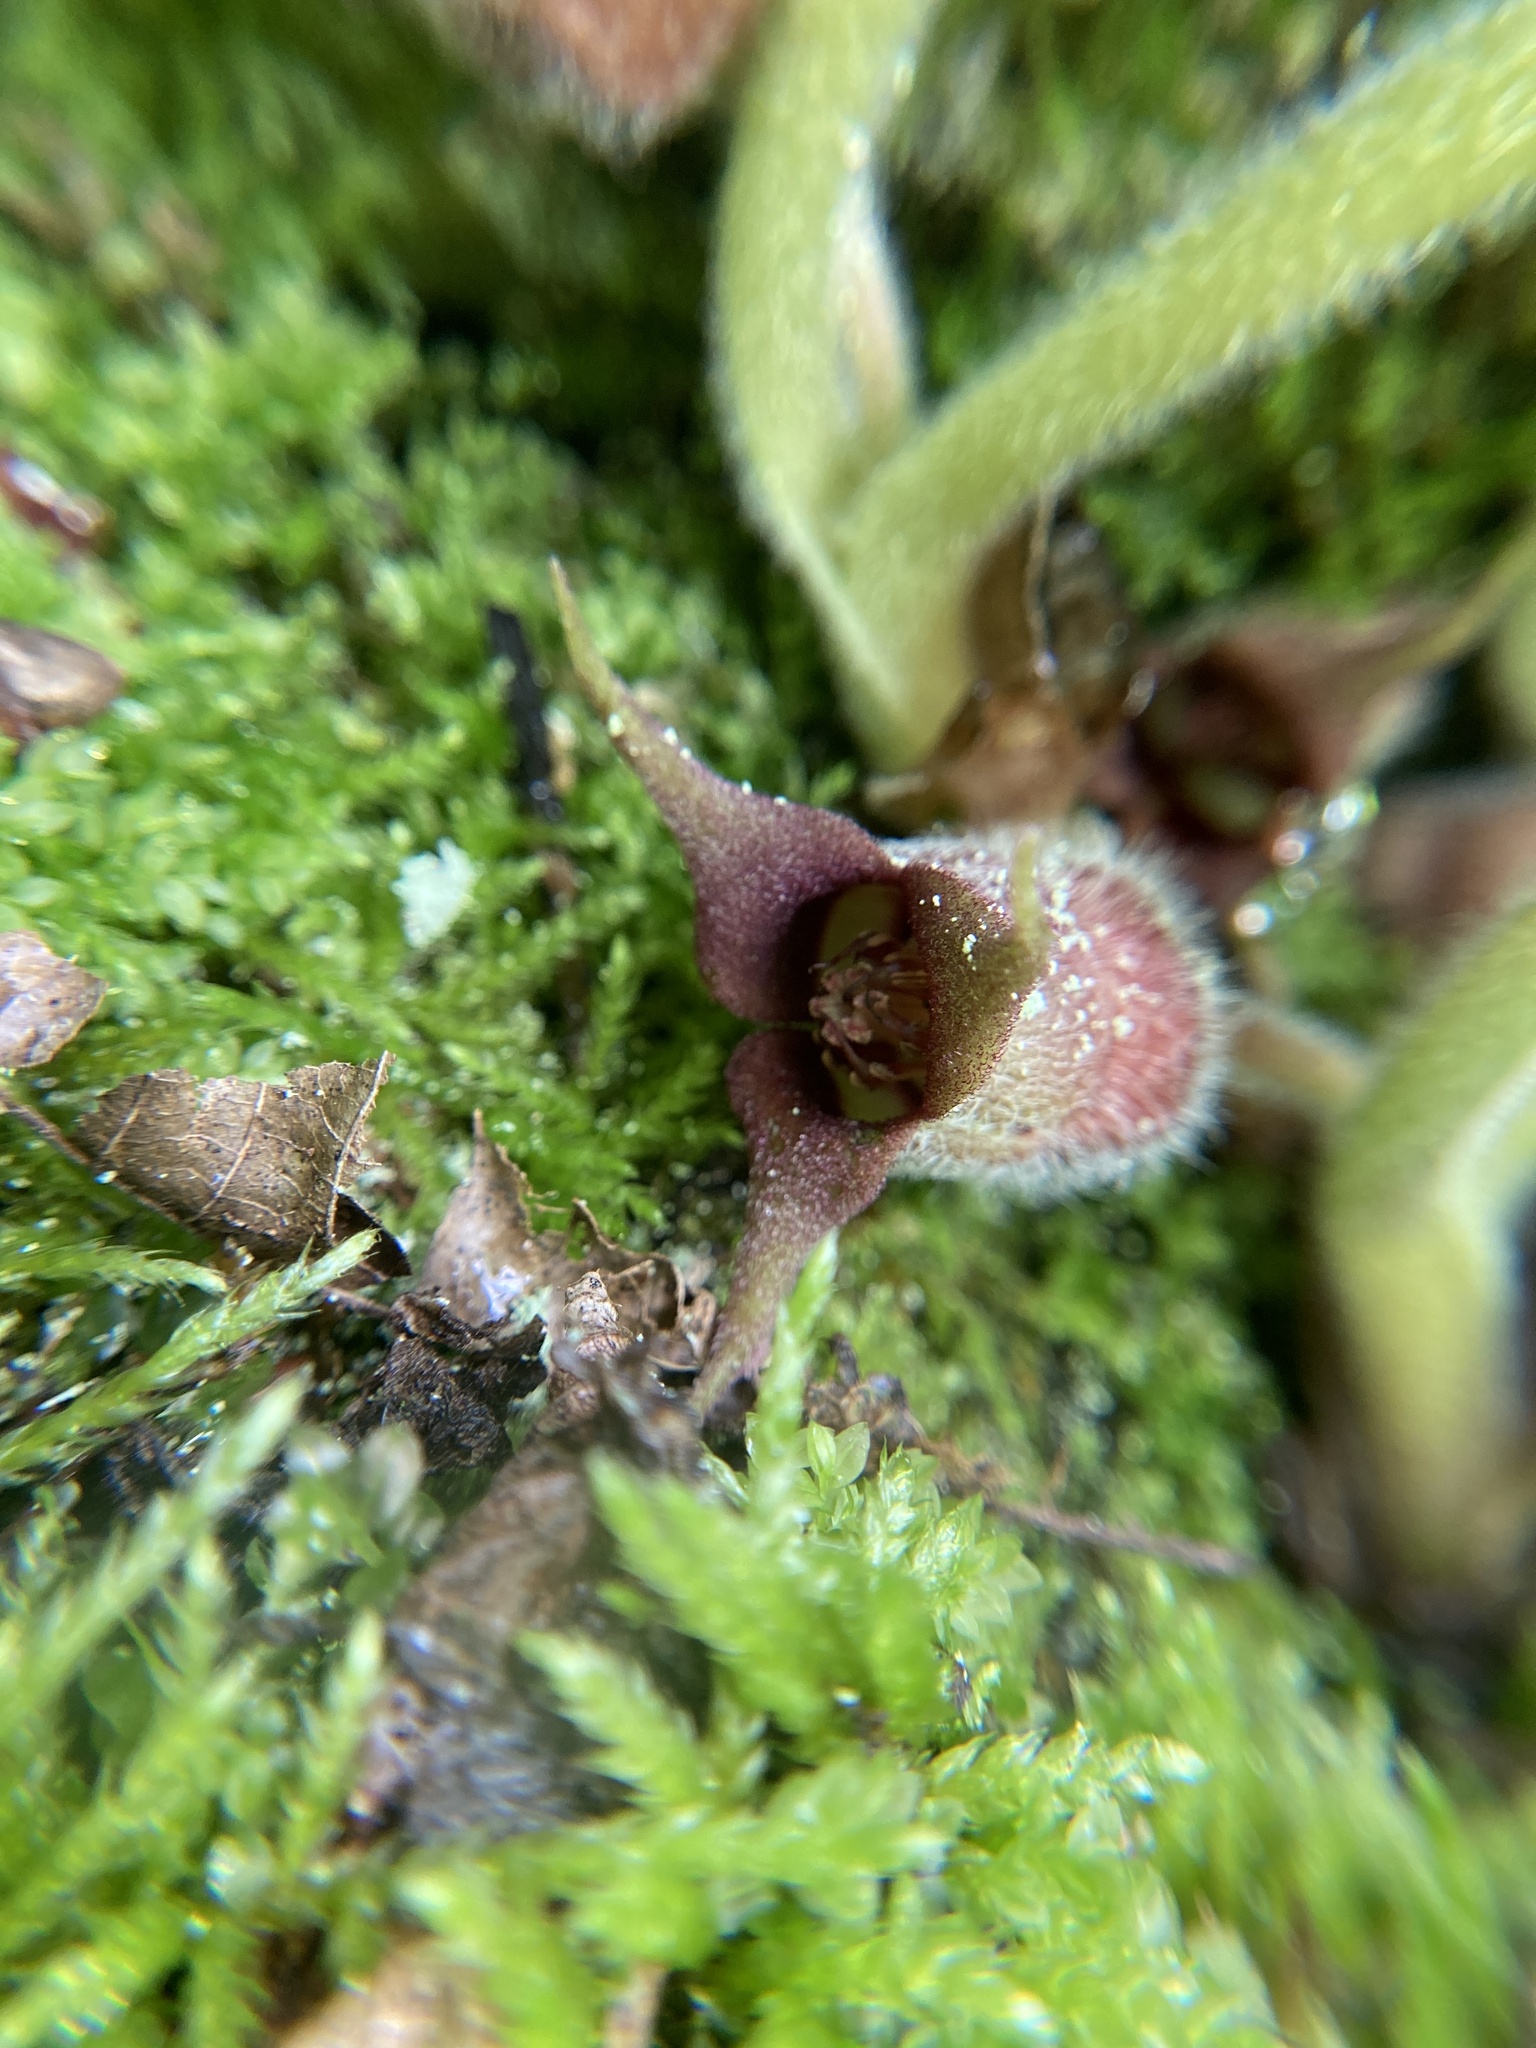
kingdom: Plantae
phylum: Tracheophyta
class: Magnoliopsida
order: Piperales
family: Aristolochiaceae
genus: Asarum
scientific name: Asarum canadense
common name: Wild ginger
